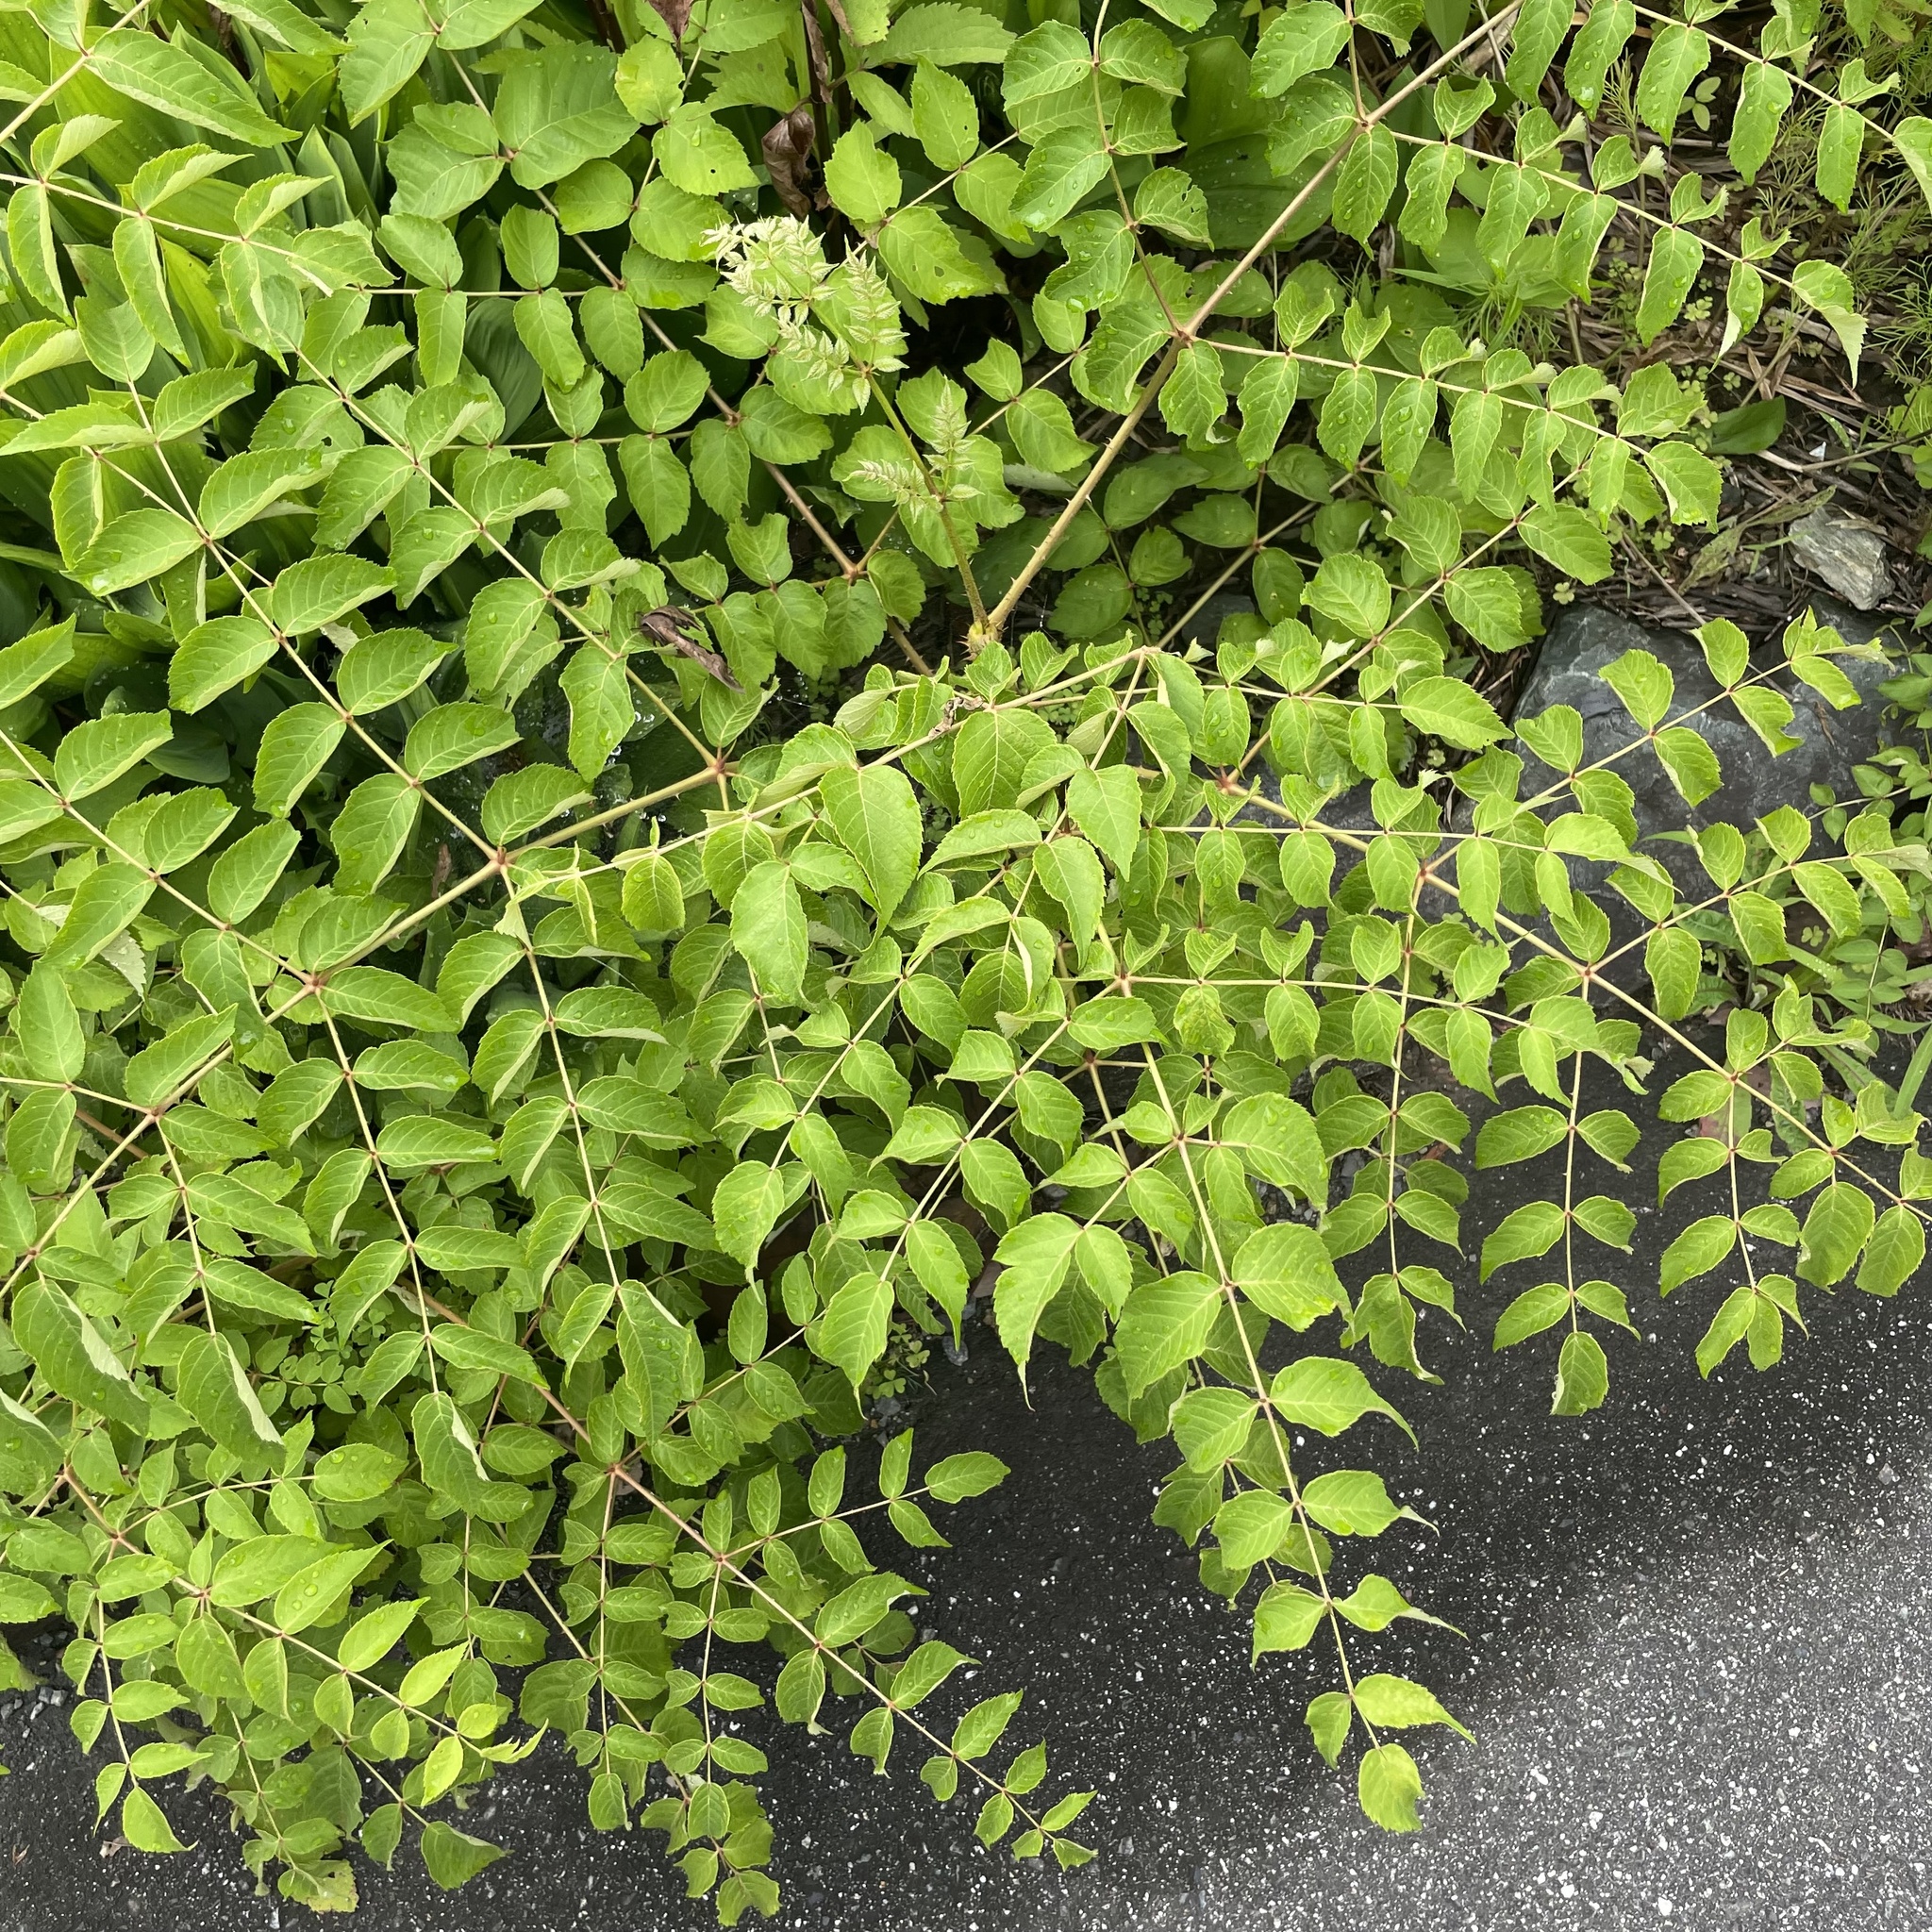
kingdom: Plantae
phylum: Tracheophyta
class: Magnoliopsida
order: Apiales
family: Araliaceae
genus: Aralia
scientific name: Aralia elata
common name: Japanese angelica-tree
